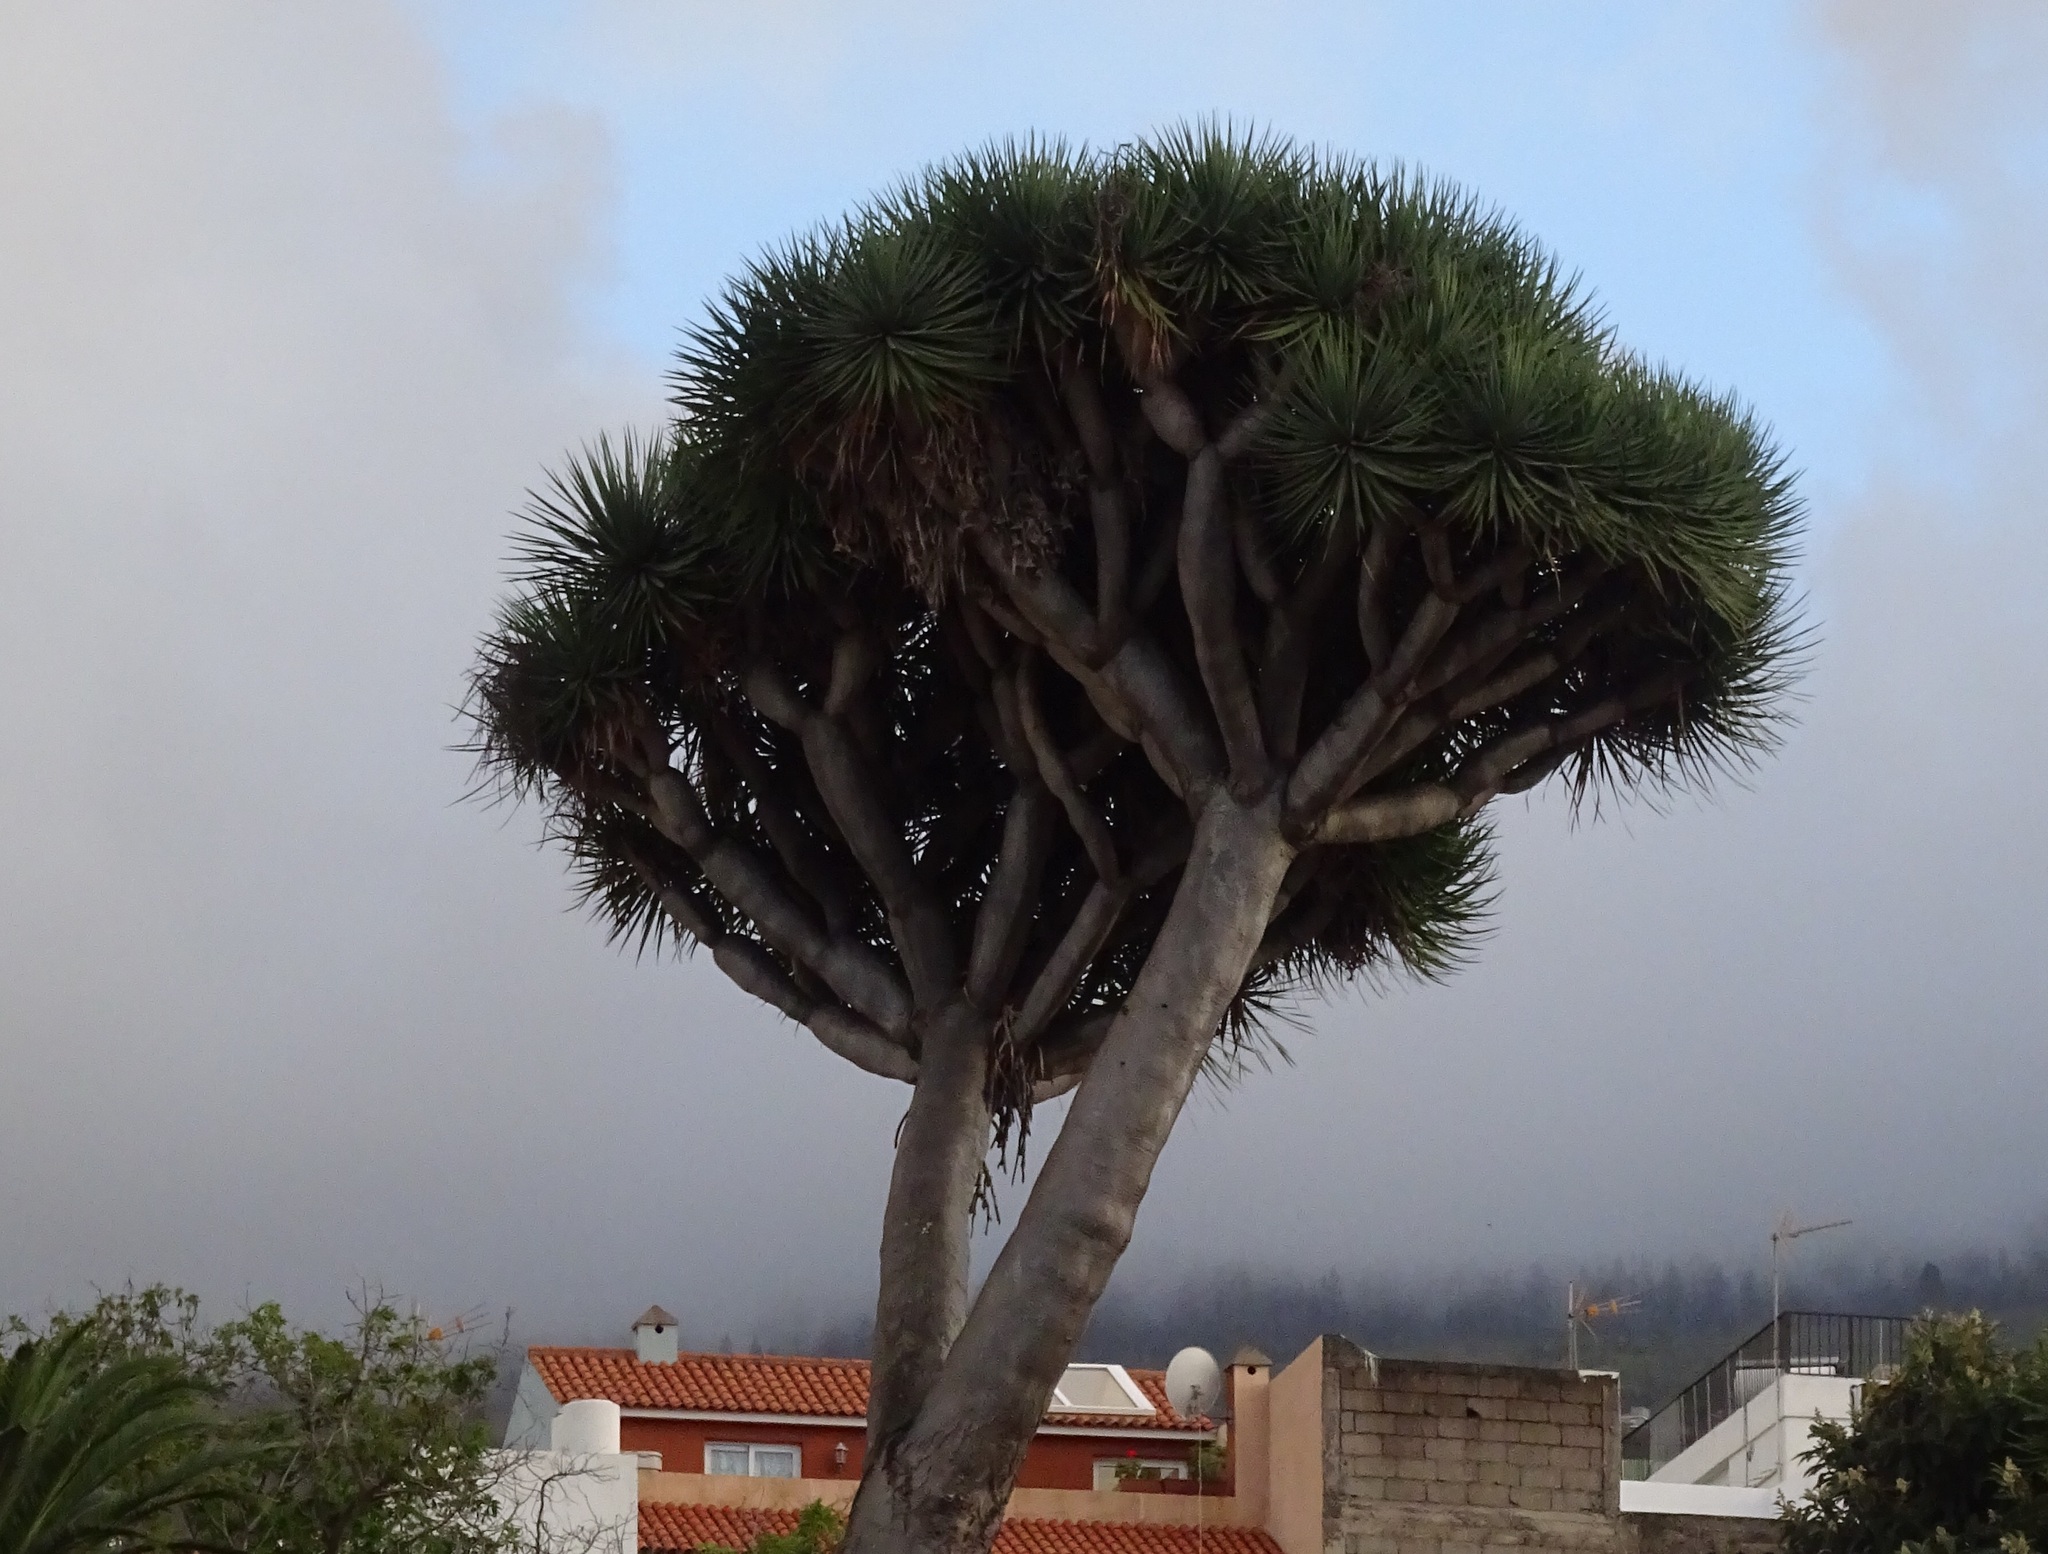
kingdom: Plantae
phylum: Tracheophyta
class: Liliopsida
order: Asparagales
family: Asparagaceae
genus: Dracaena
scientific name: Dracaena draco
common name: Canary island dragon tree
